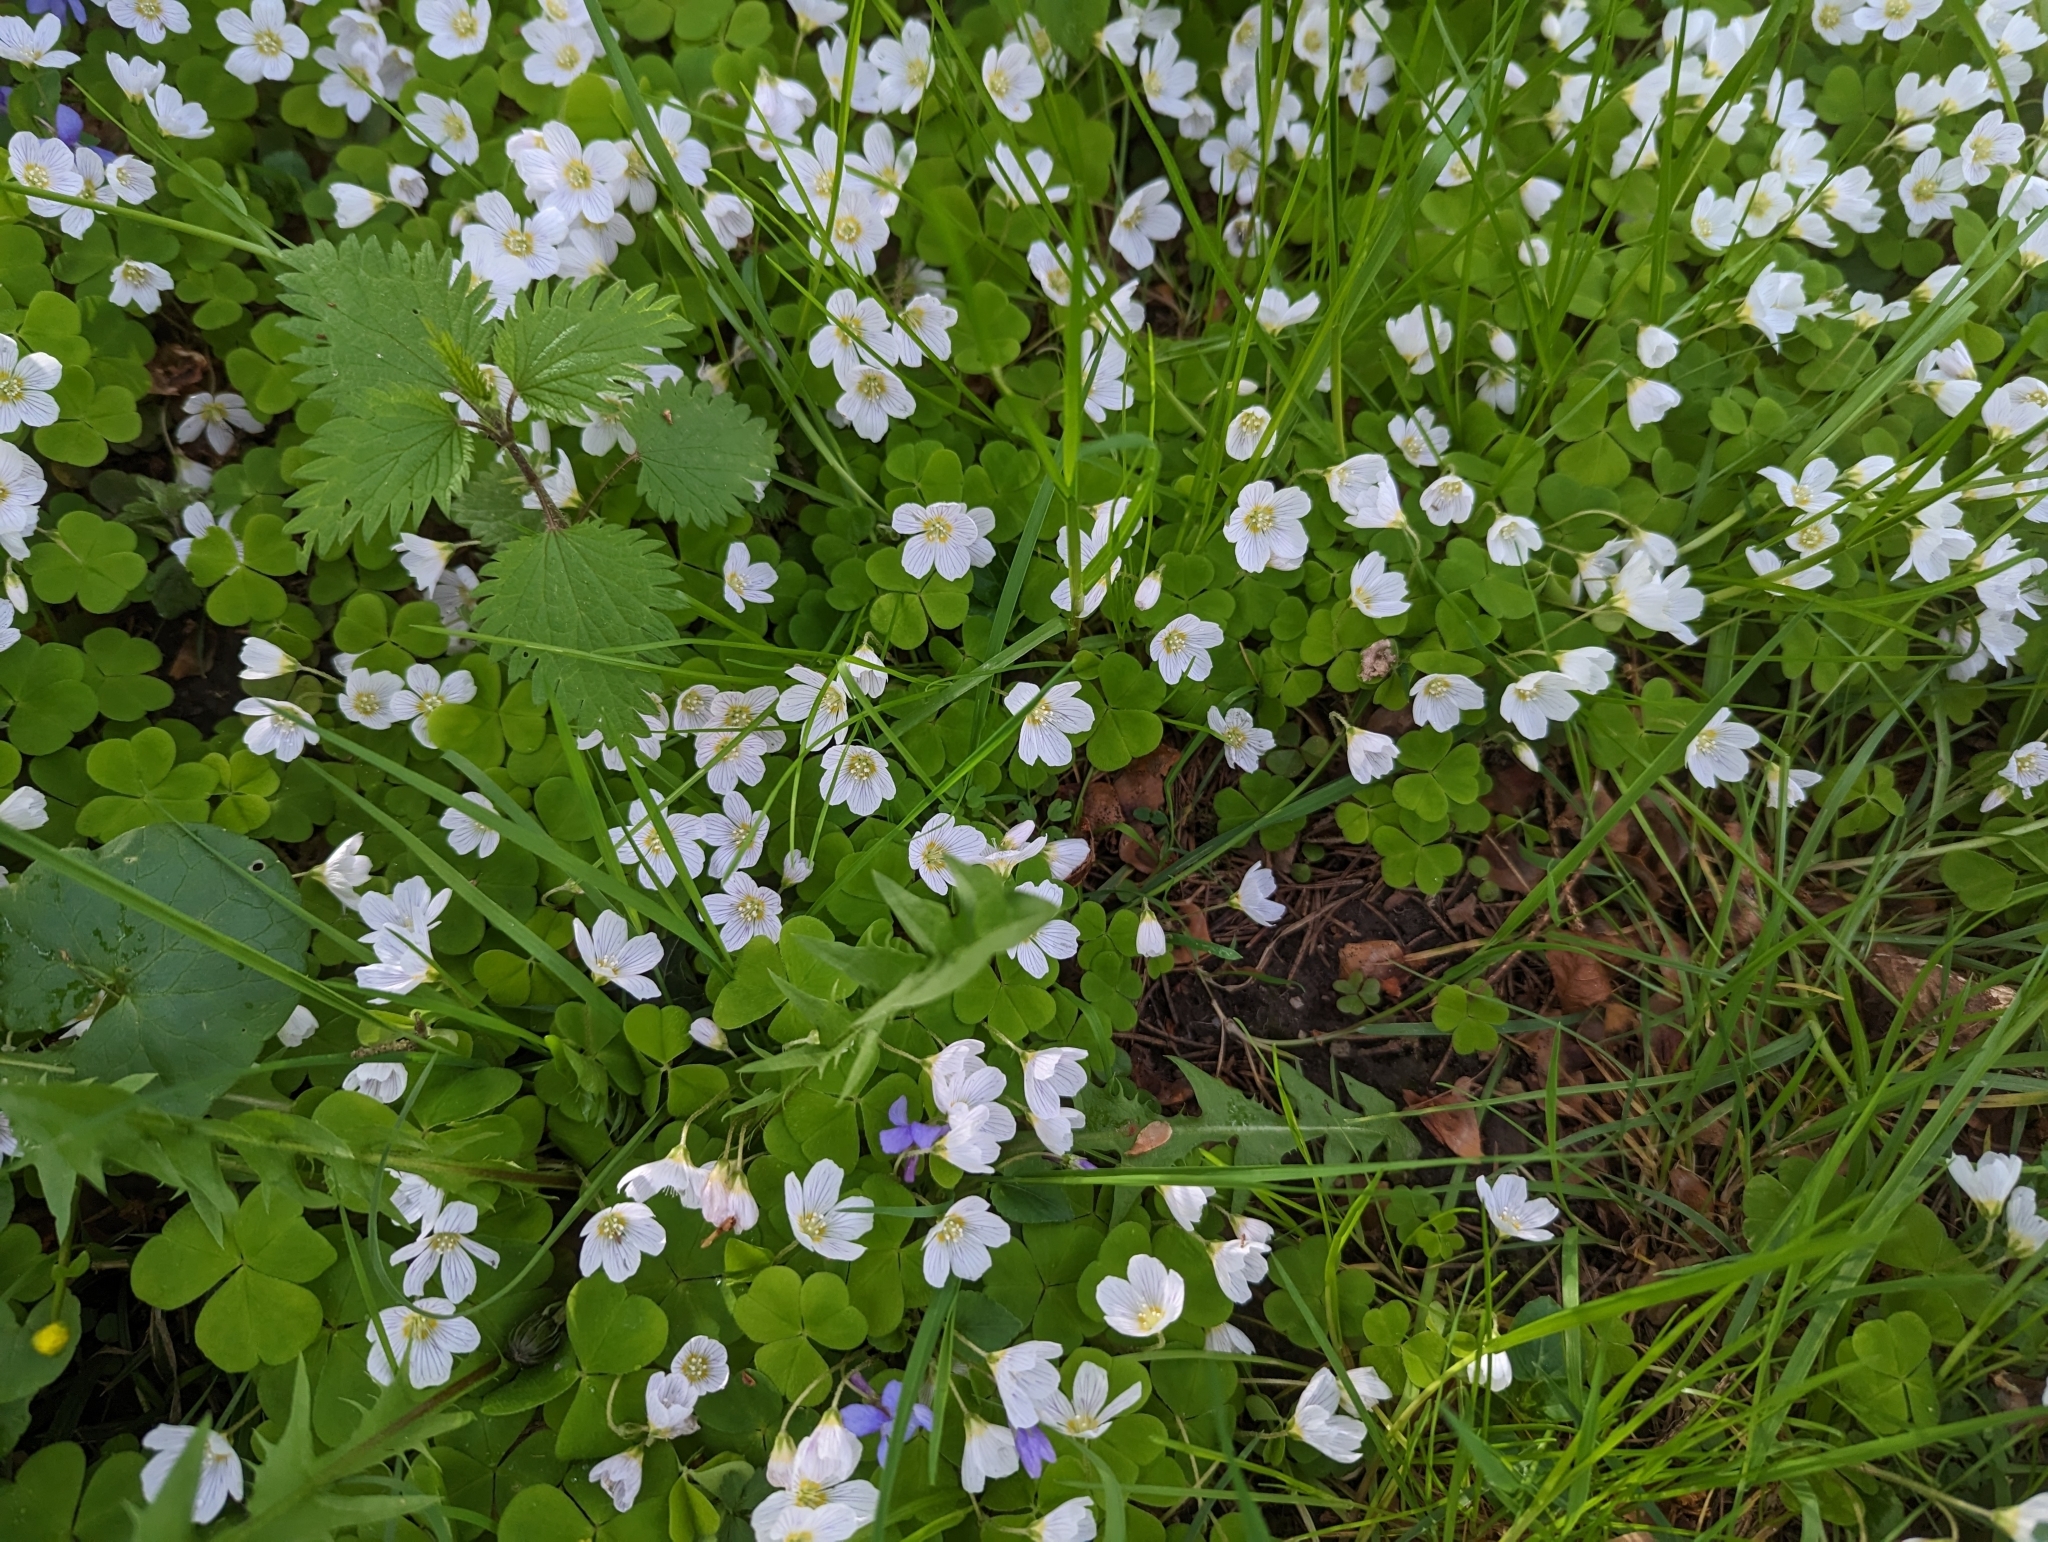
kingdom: Plantae
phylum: Tracheophyta
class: Magnoliopsida
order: Oxalidales
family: Oxalidaceae
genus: Oxalis
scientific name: Oxalis acetosella
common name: Wood-sorrel
